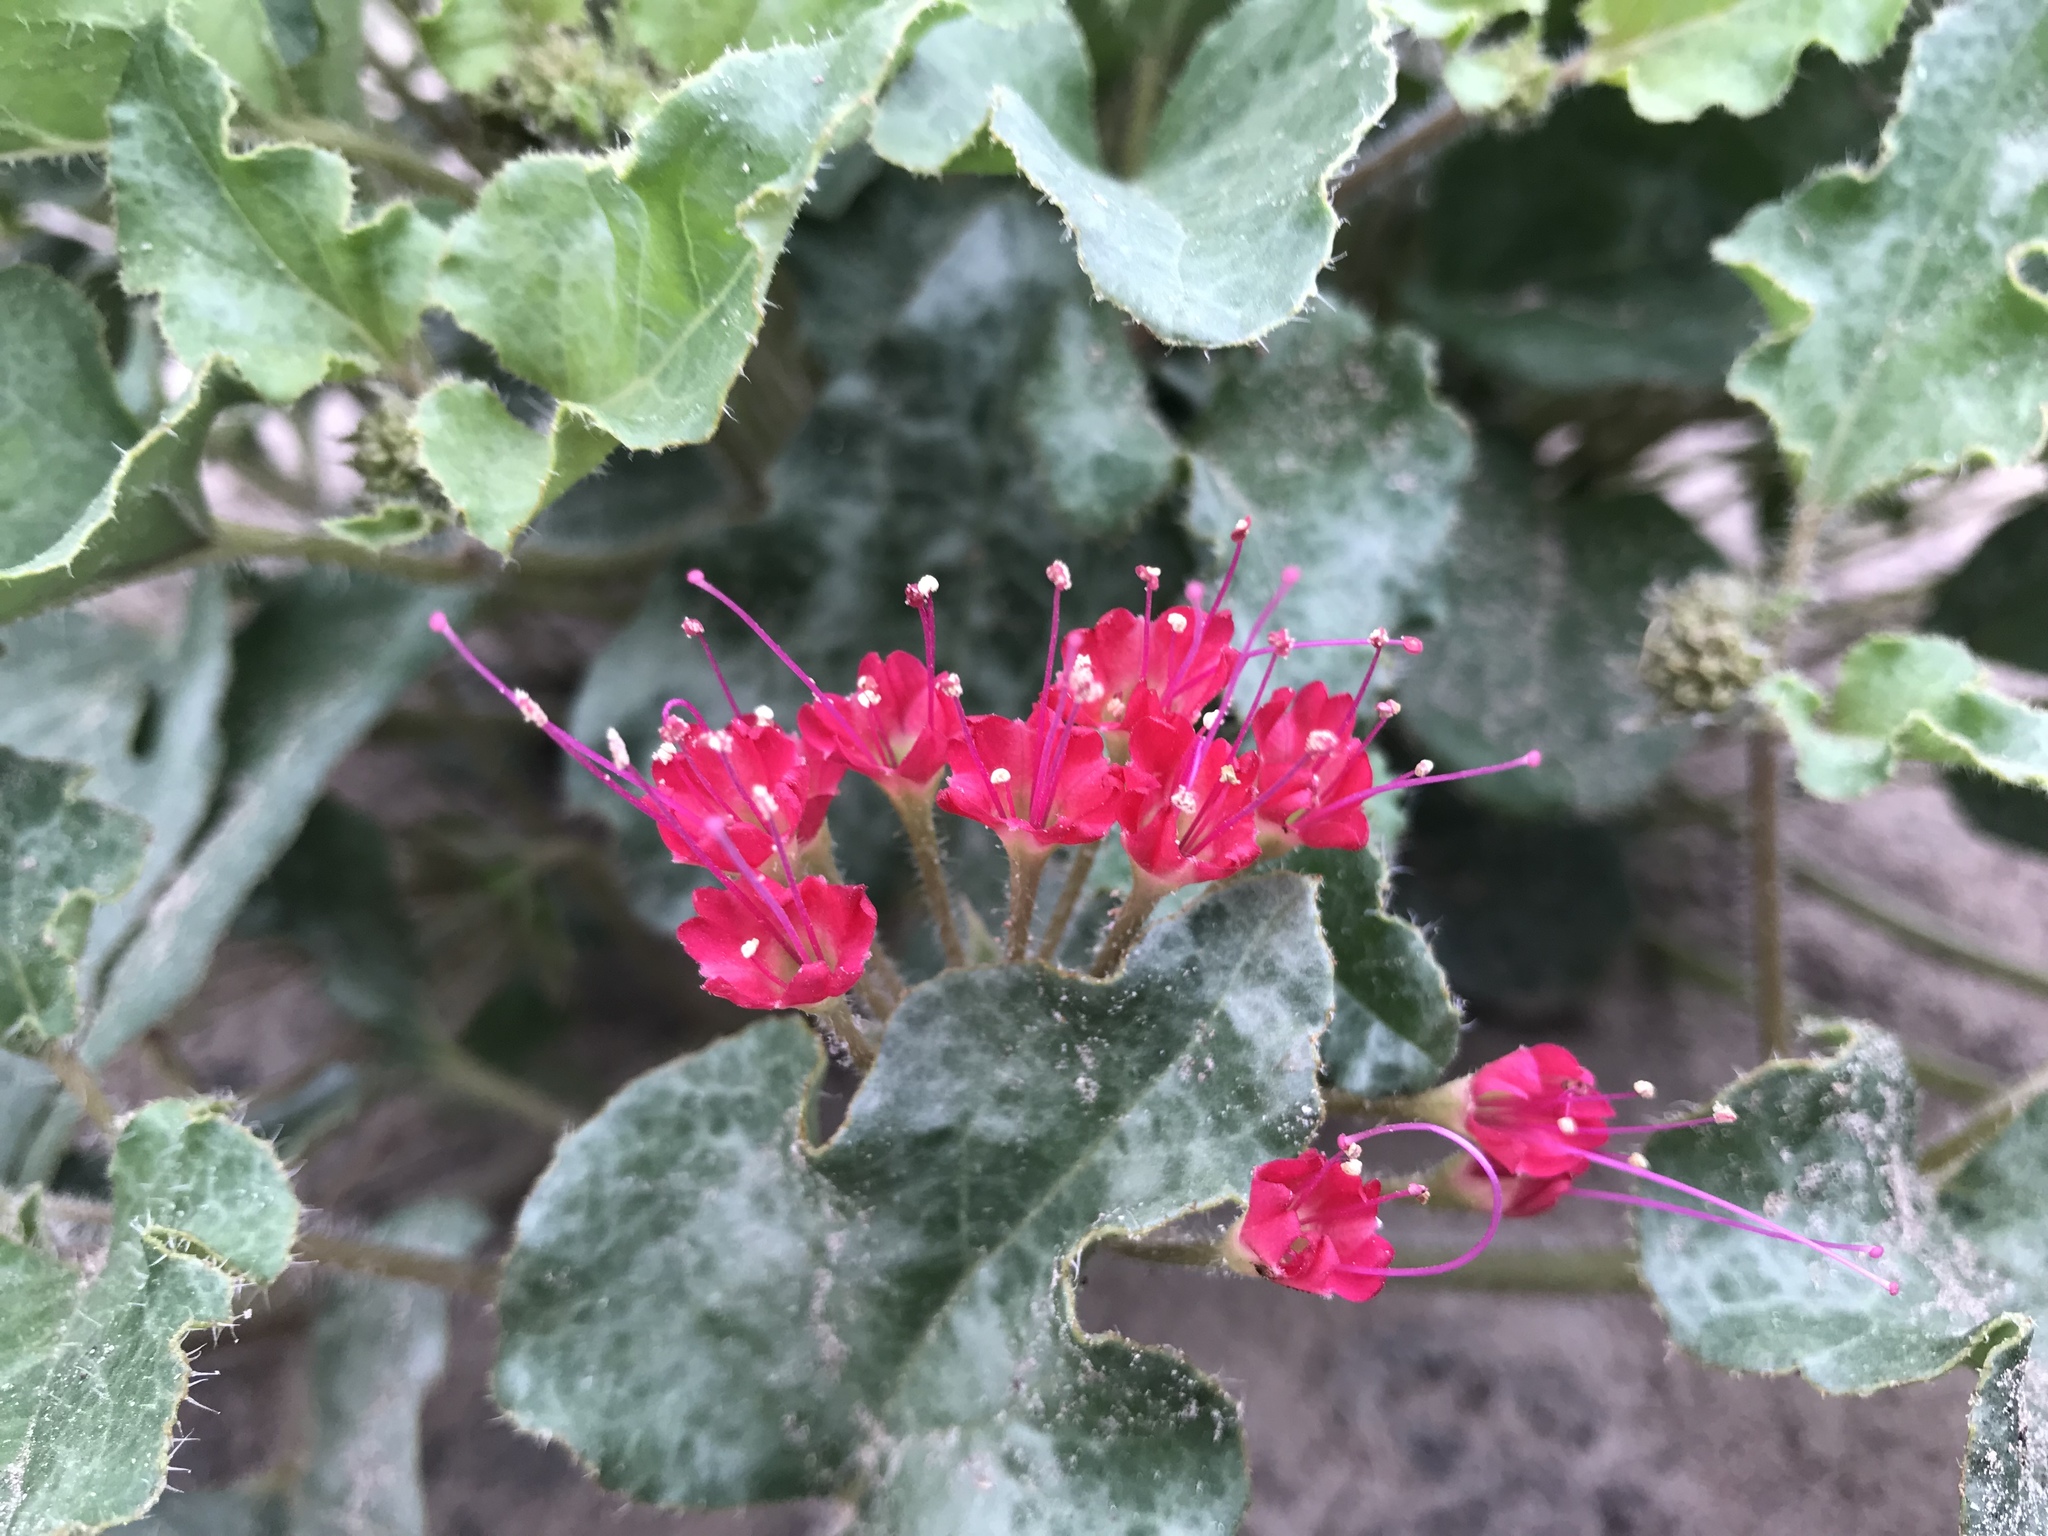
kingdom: Plantae
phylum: Tracheophyta
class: Magnoliopsida
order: Caryophyllales
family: Nyctaginaceae
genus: Nyctaginia
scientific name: Nyctaginia capitata
